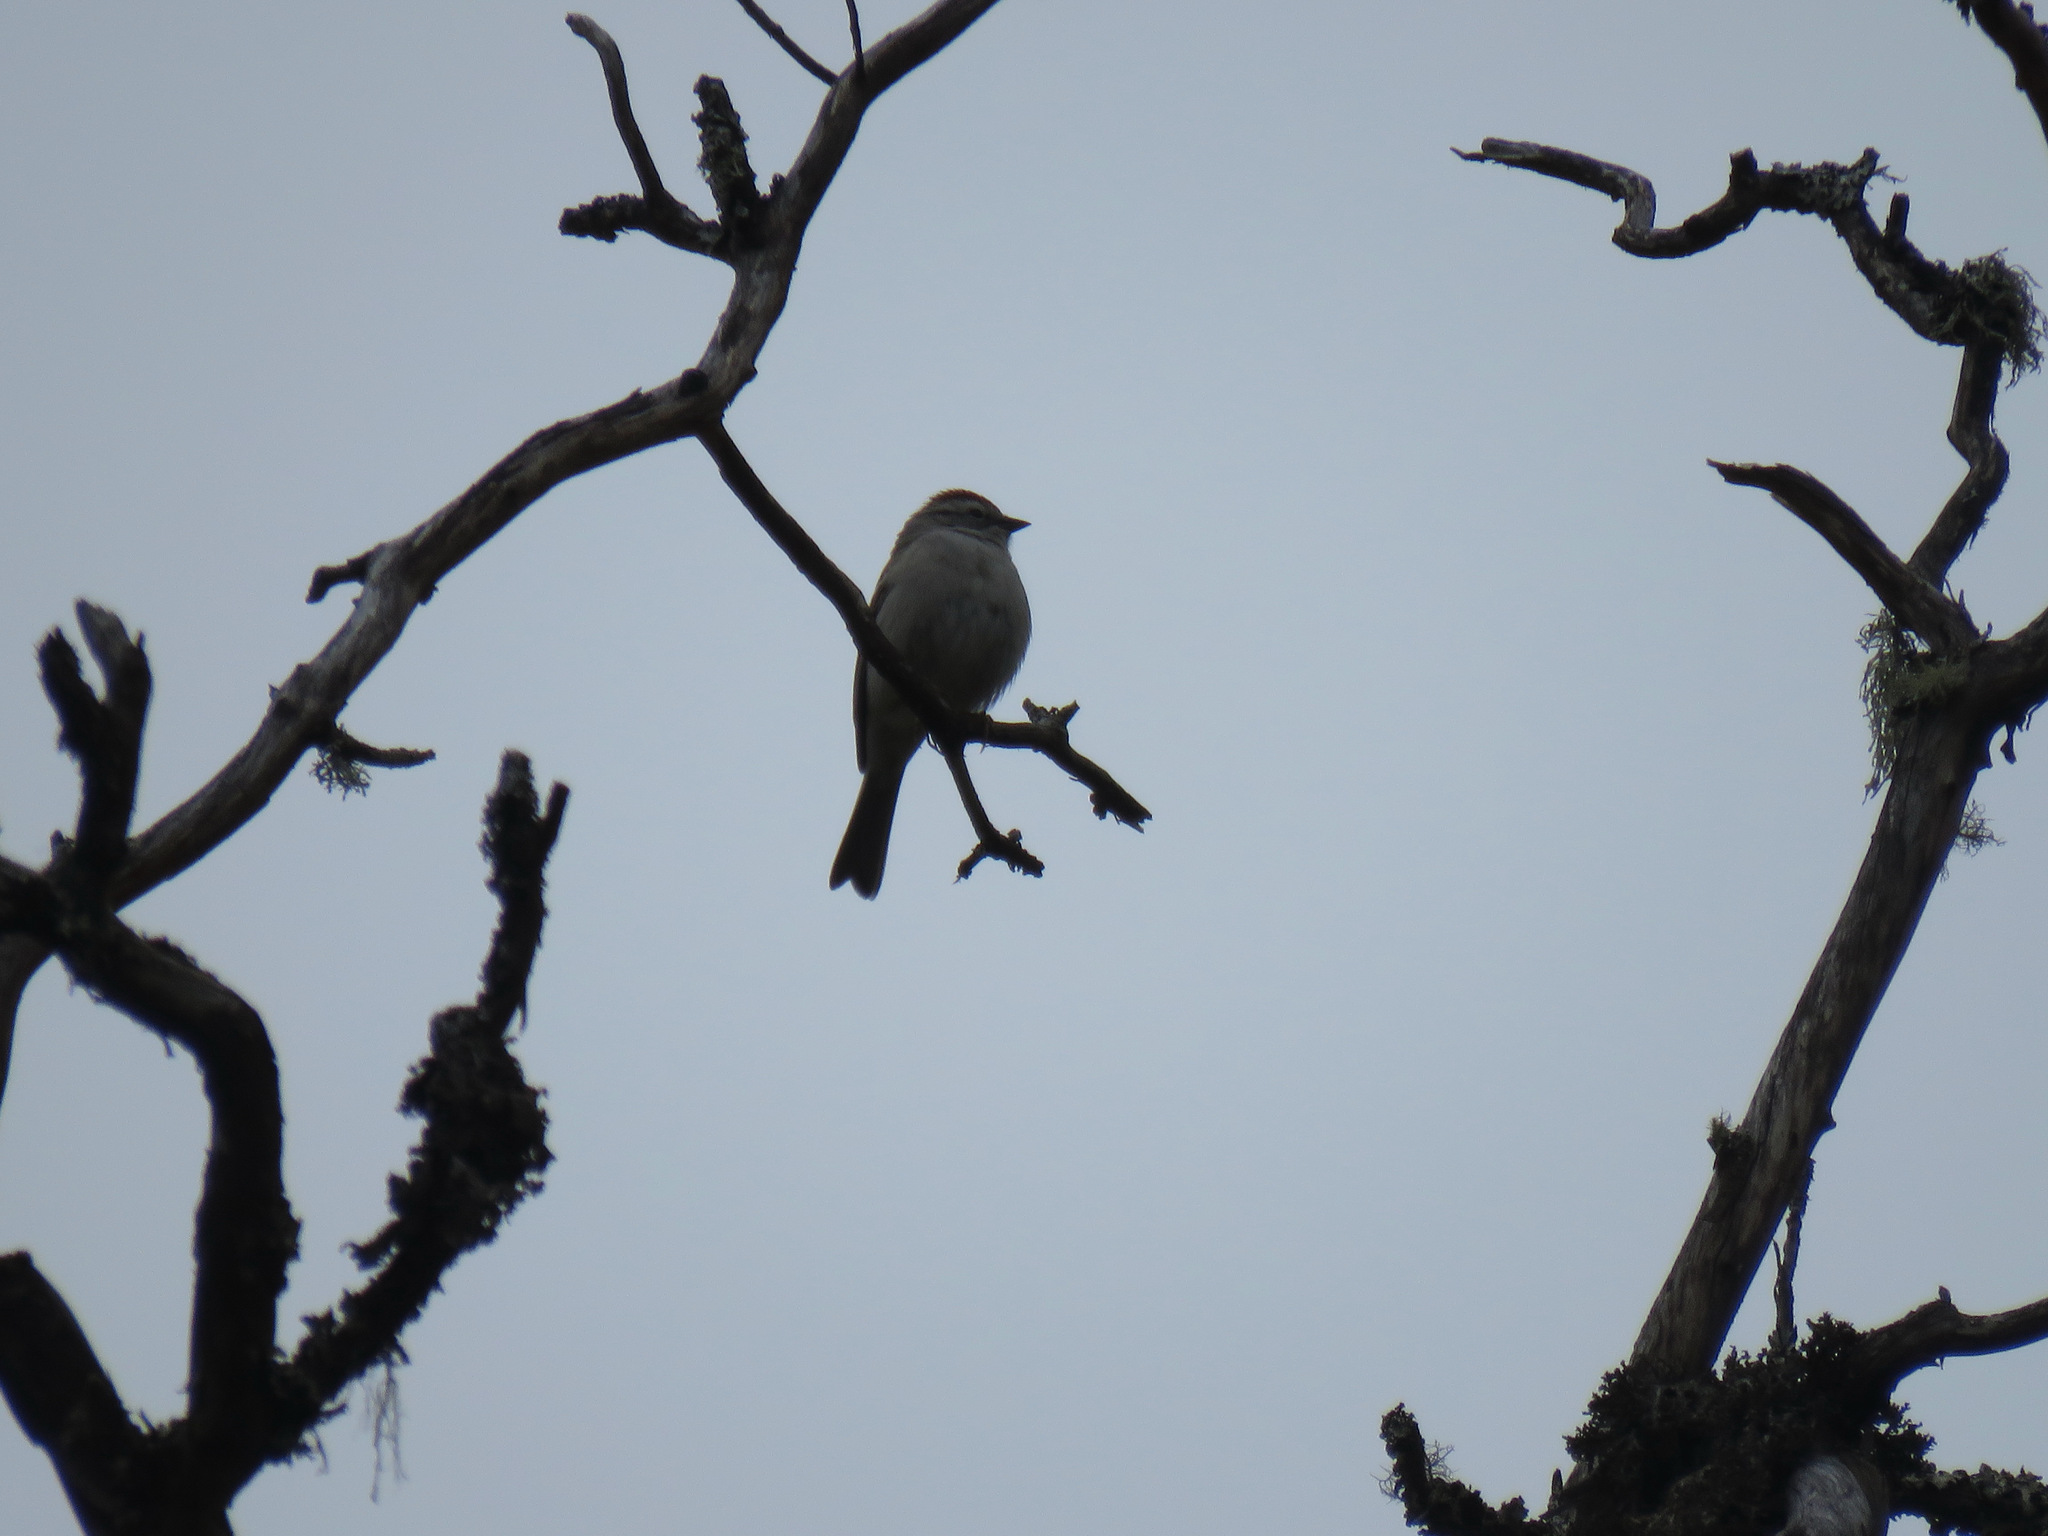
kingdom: Animalia
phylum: Chordata
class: Aves
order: Passeriformes
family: Passerellidae
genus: Spizella
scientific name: Spizella passerina
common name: Chipping sparrow
